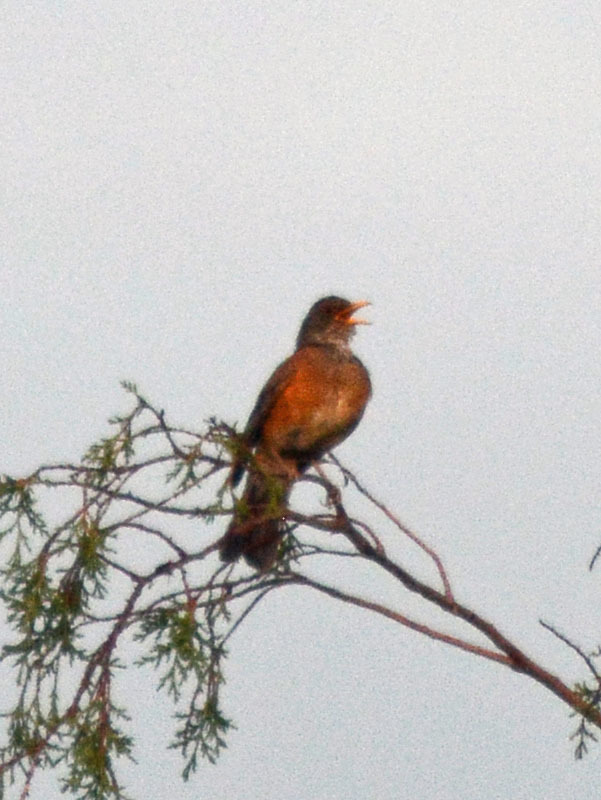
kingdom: Animalia
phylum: Chordata
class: Aves
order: Passeriformes
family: Turdidae
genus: Turdus
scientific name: Turdus rufopalliatus
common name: Rufous-backed robin
